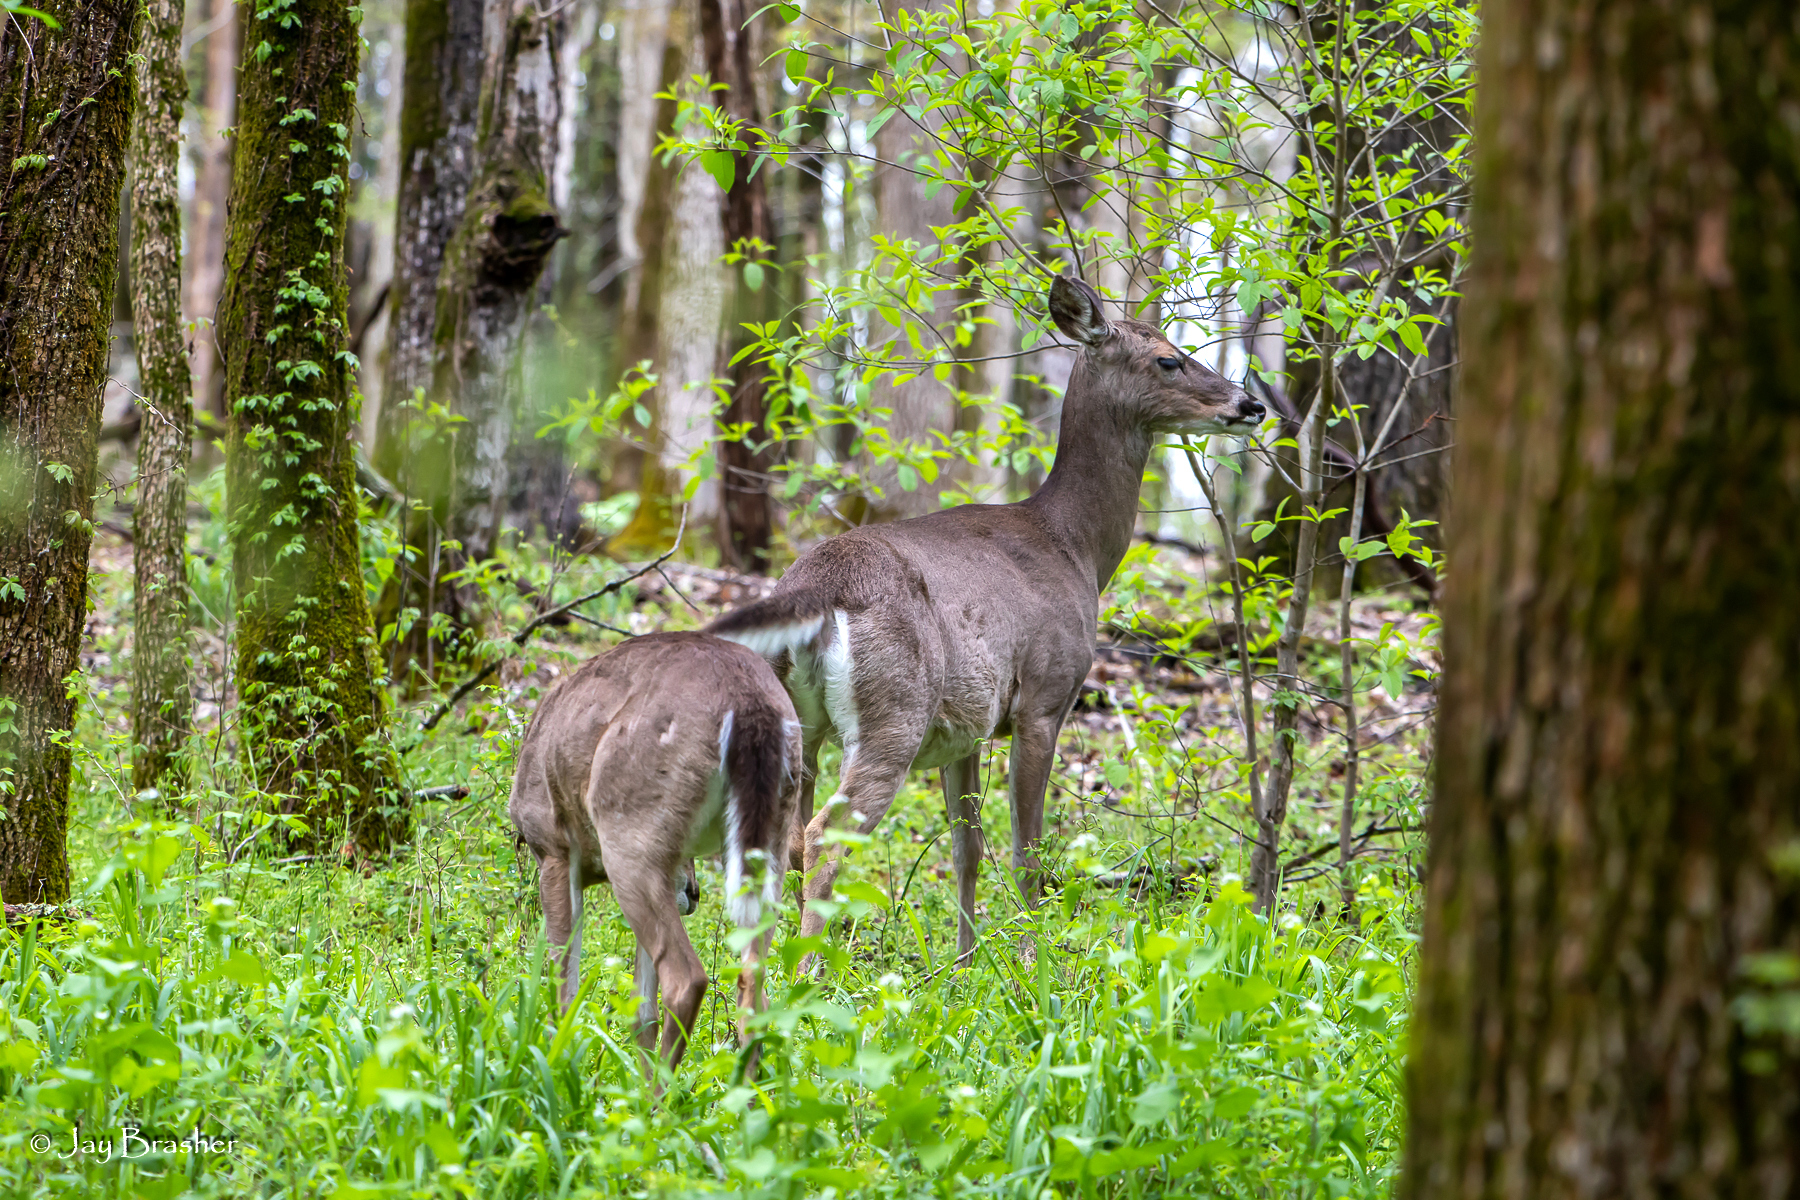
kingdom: Animalia
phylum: Chordata
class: Mammalia
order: Artiodactyla
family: Cervidae
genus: Odocoileus
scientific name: Odocoileus virginianus
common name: White-tailed deer
